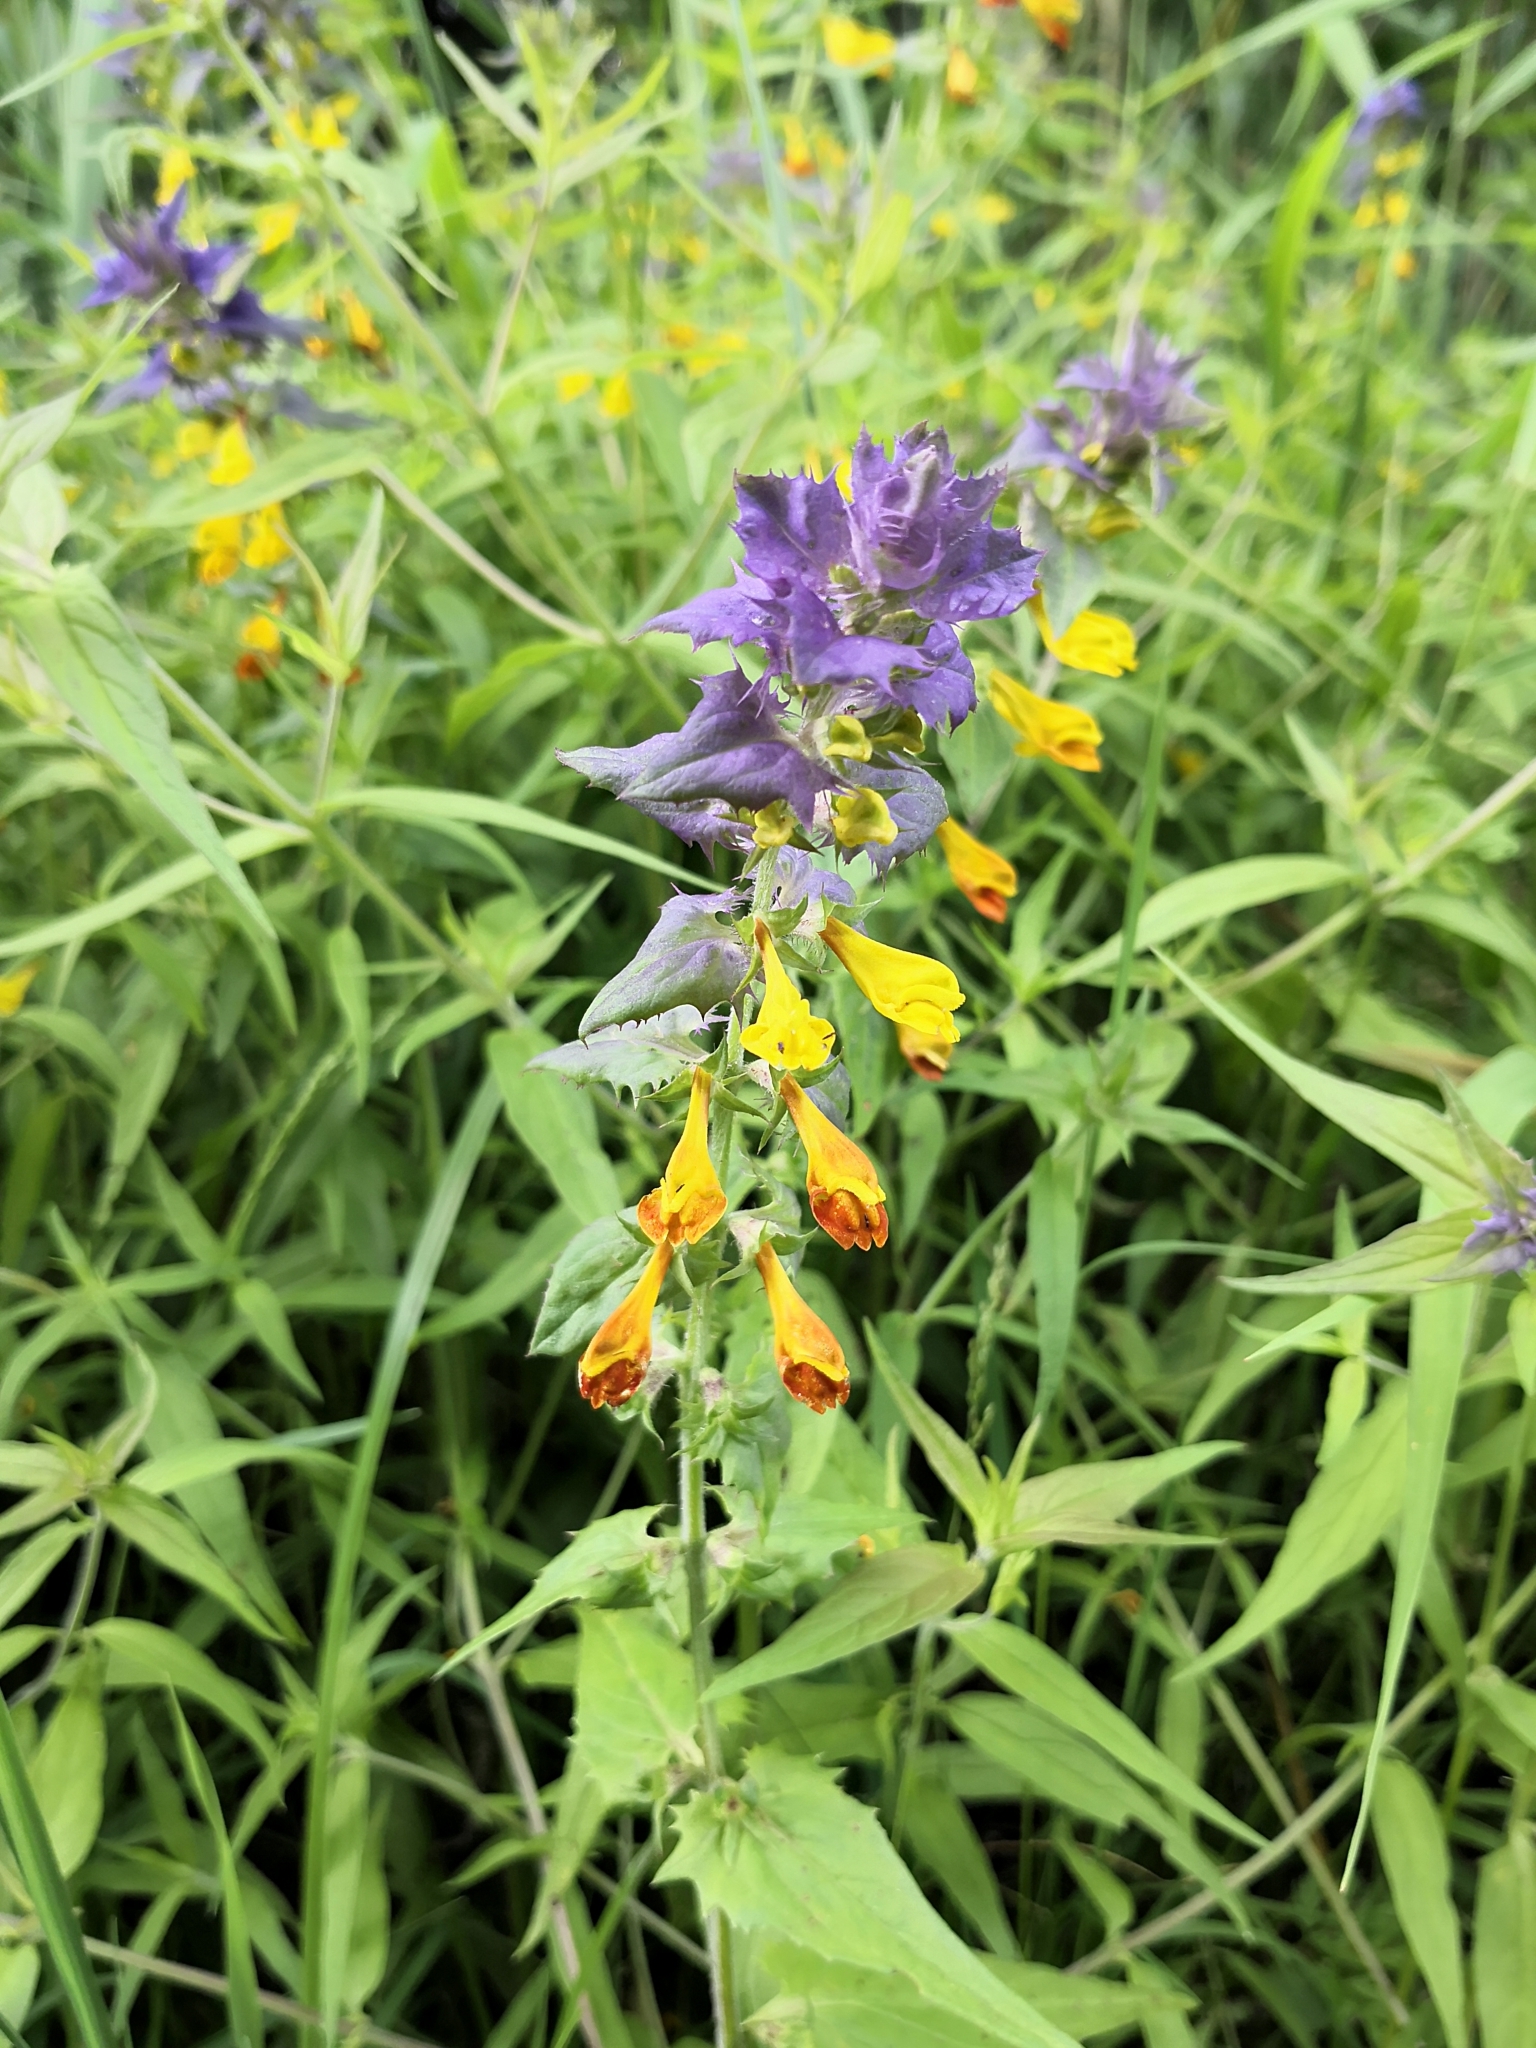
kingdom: Plantae
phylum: Tracheophyta
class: Magnoliopsida
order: Lamiales
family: Orobanchaceae
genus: Melampyrum
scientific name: Melampyrum nemorosum
